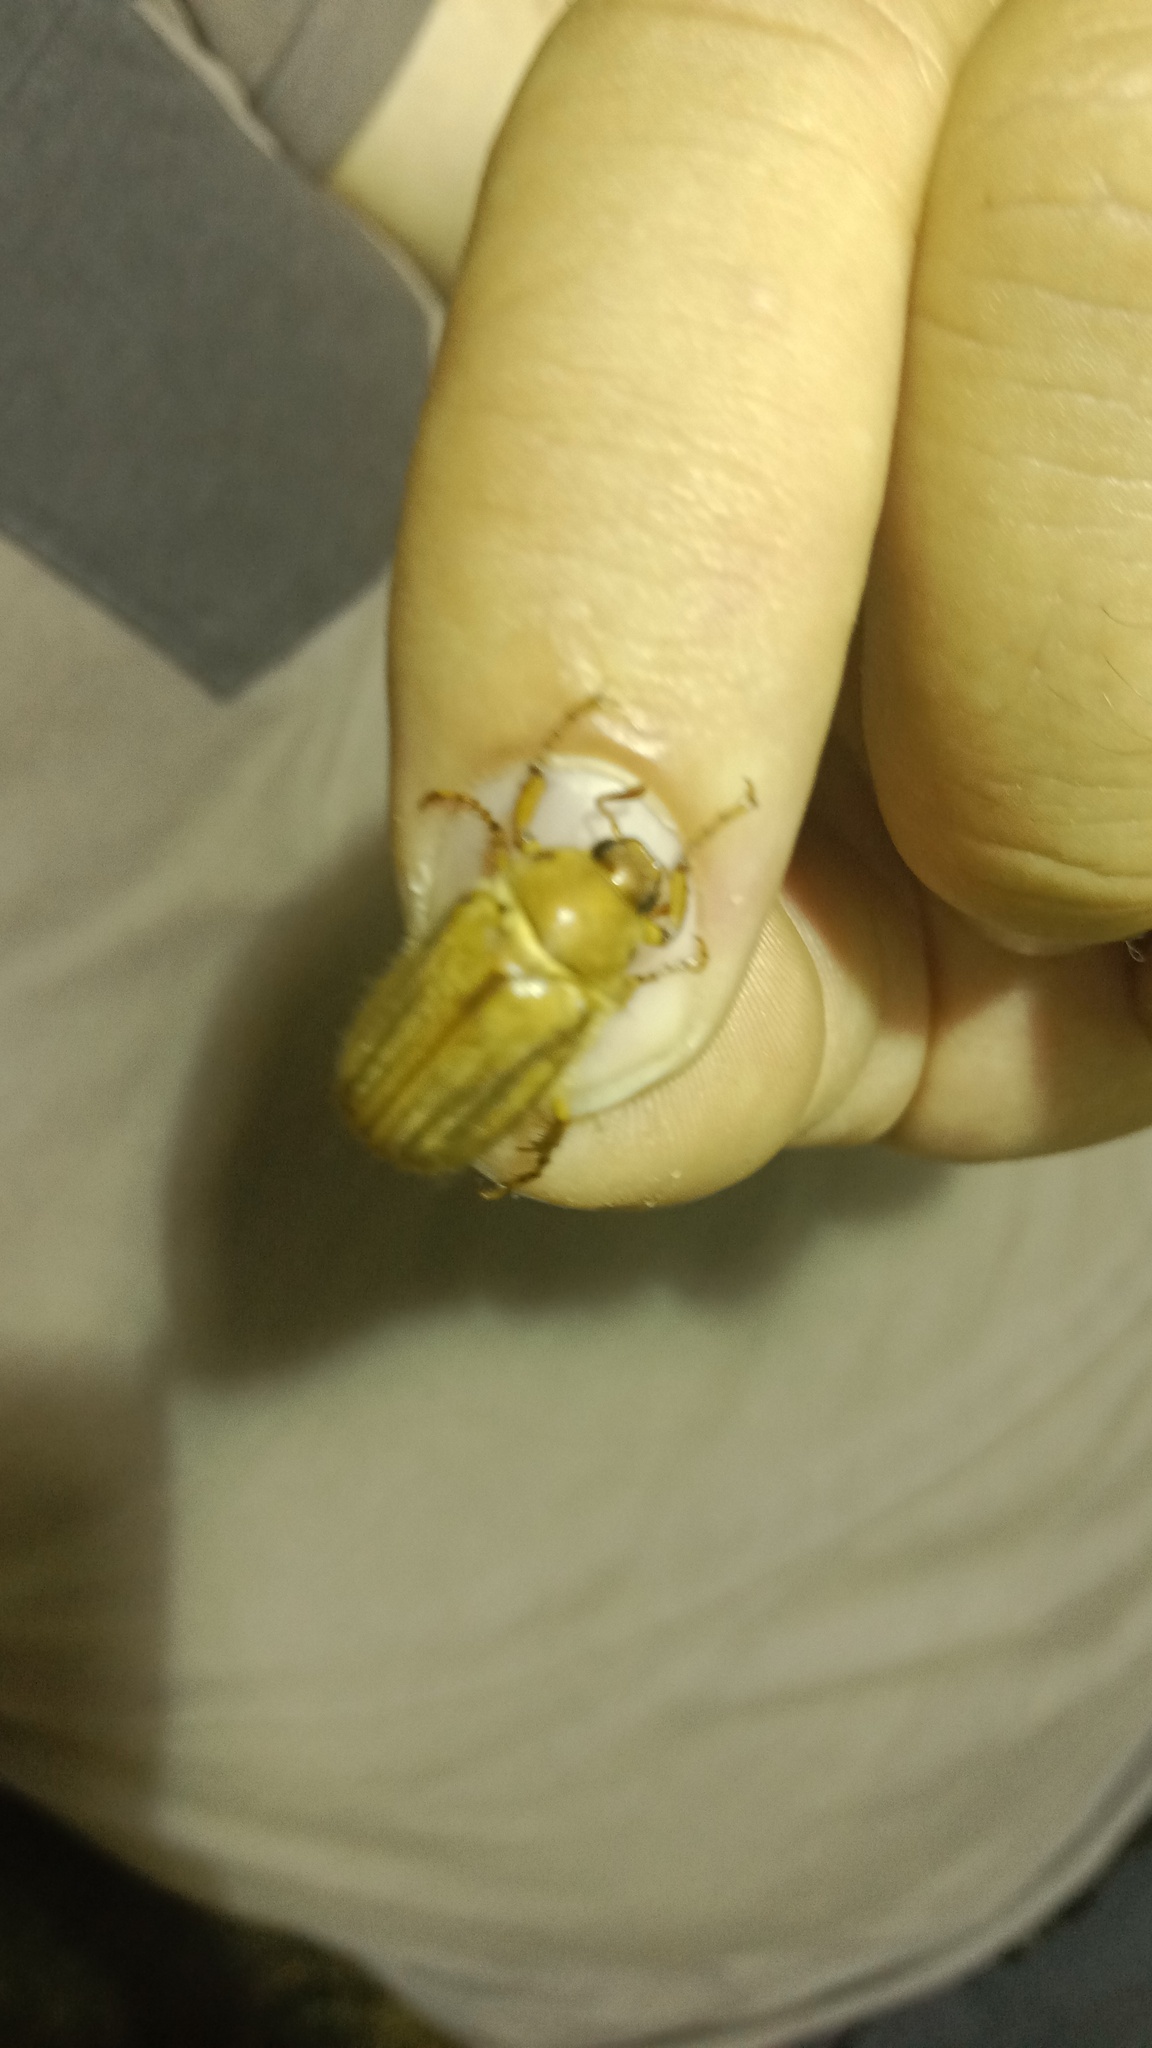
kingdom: Animalia
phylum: Arthropoda
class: Insecta
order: Coleoptera
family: Scarabaeidae
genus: Amphimallon
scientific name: Amphimallon solstitiale
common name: Summer chafer
